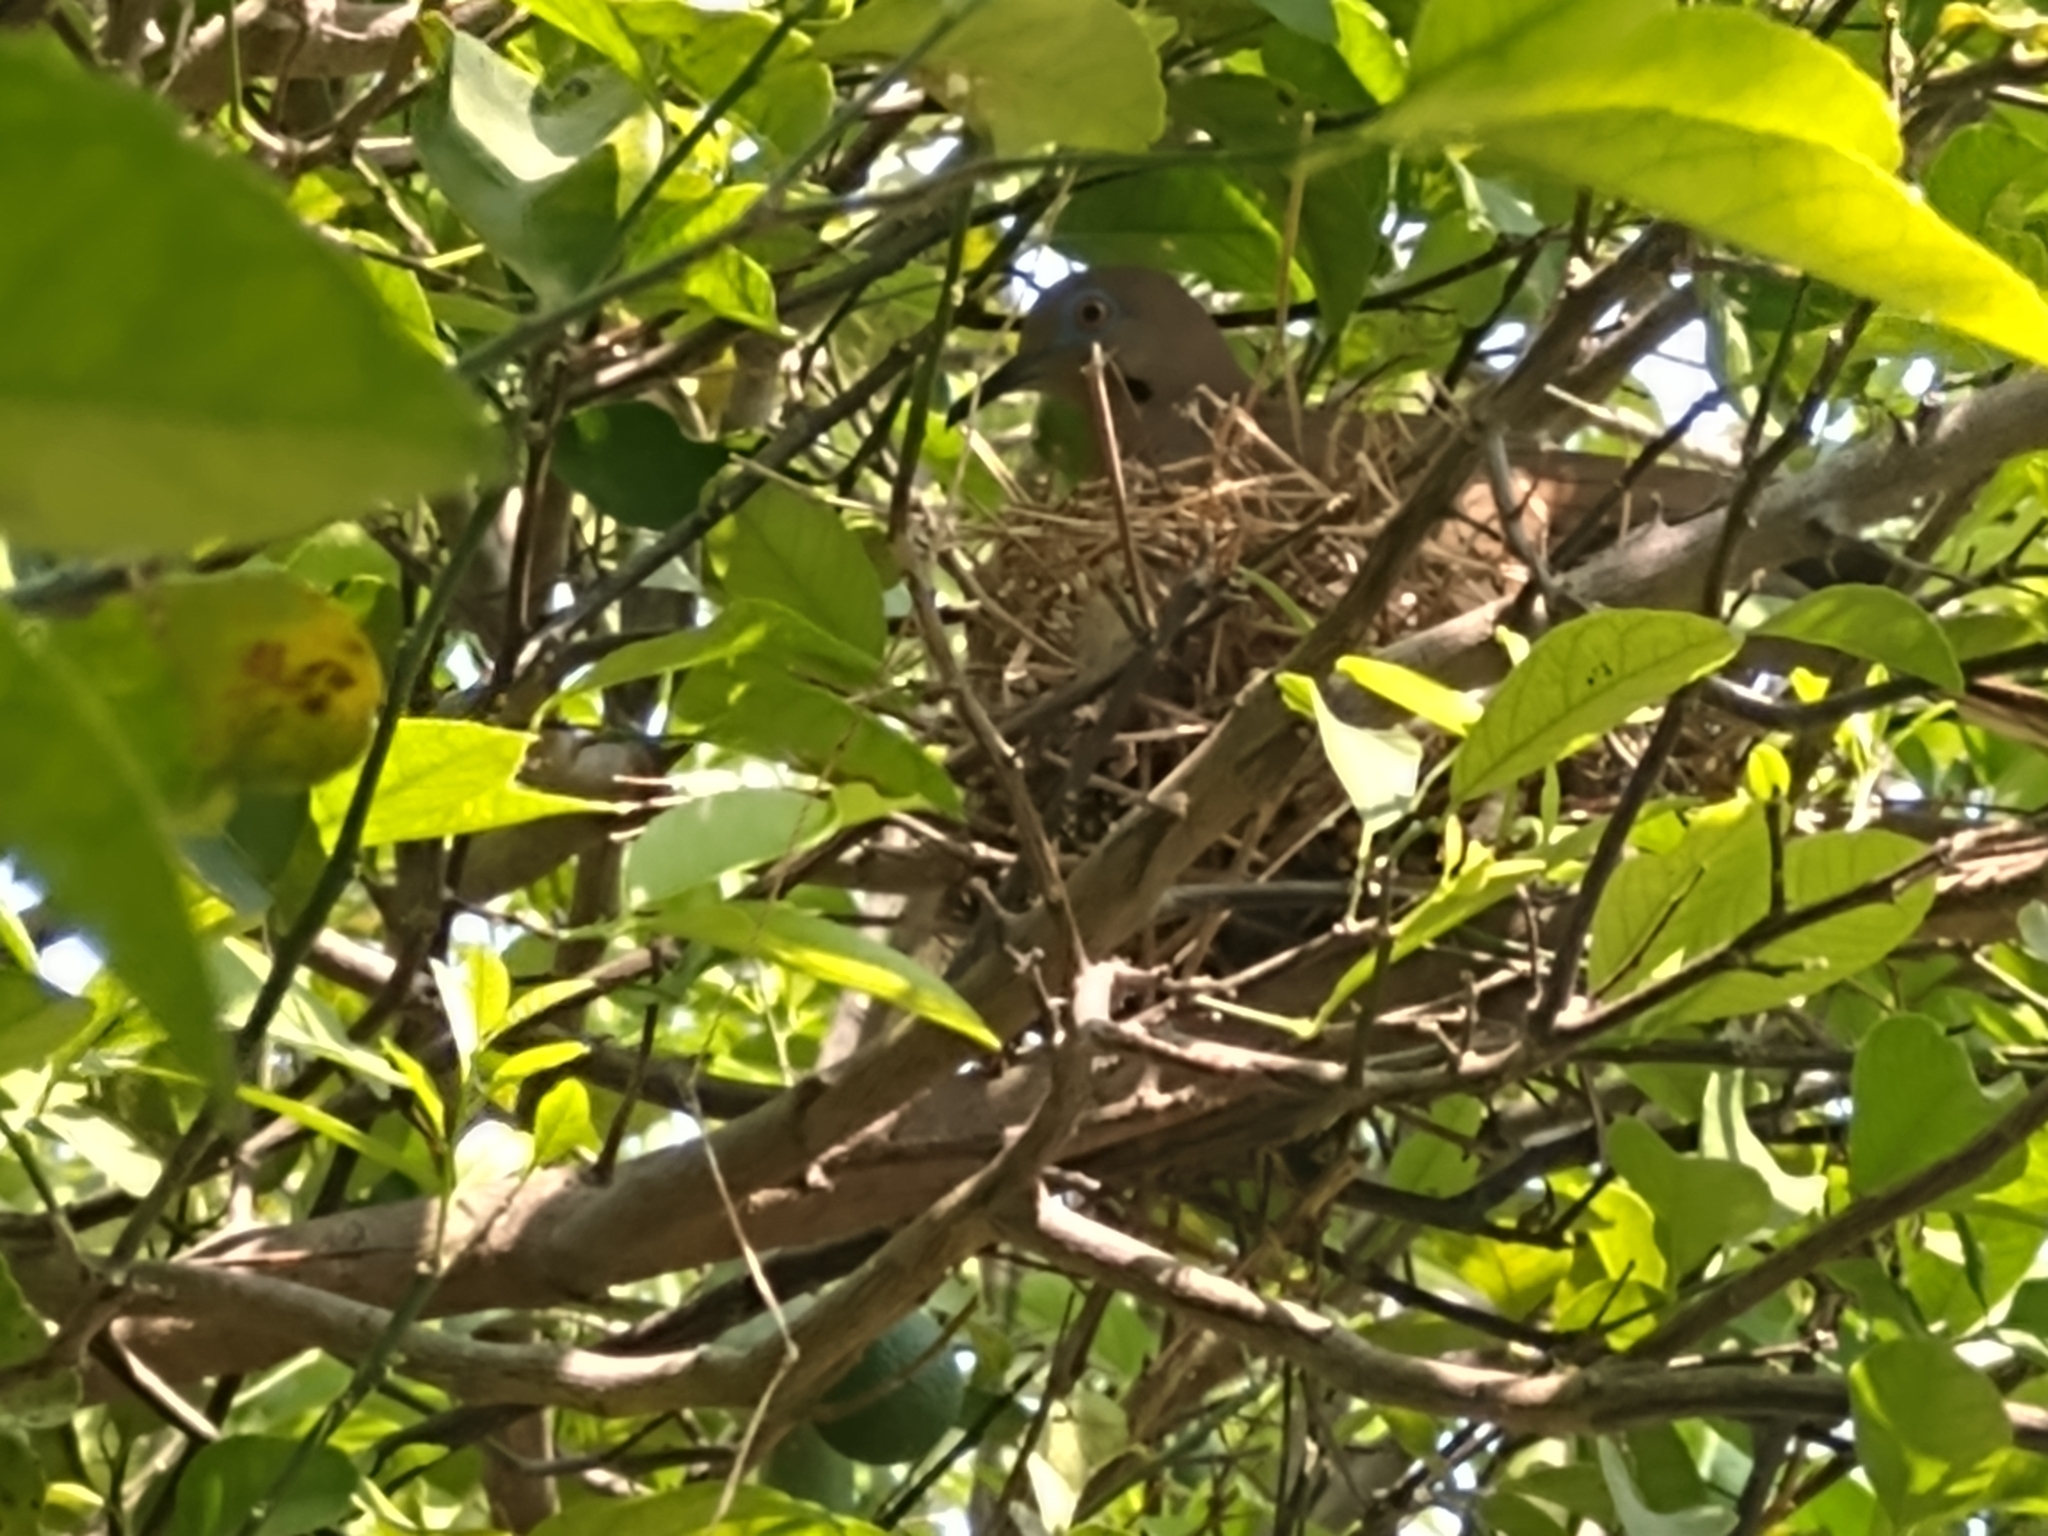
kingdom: Animalia
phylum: Chordata
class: Aves
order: Columbiformes
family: Columbidae
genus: Zenaida
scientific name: Zenaida asiatica
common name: White-winged dove
